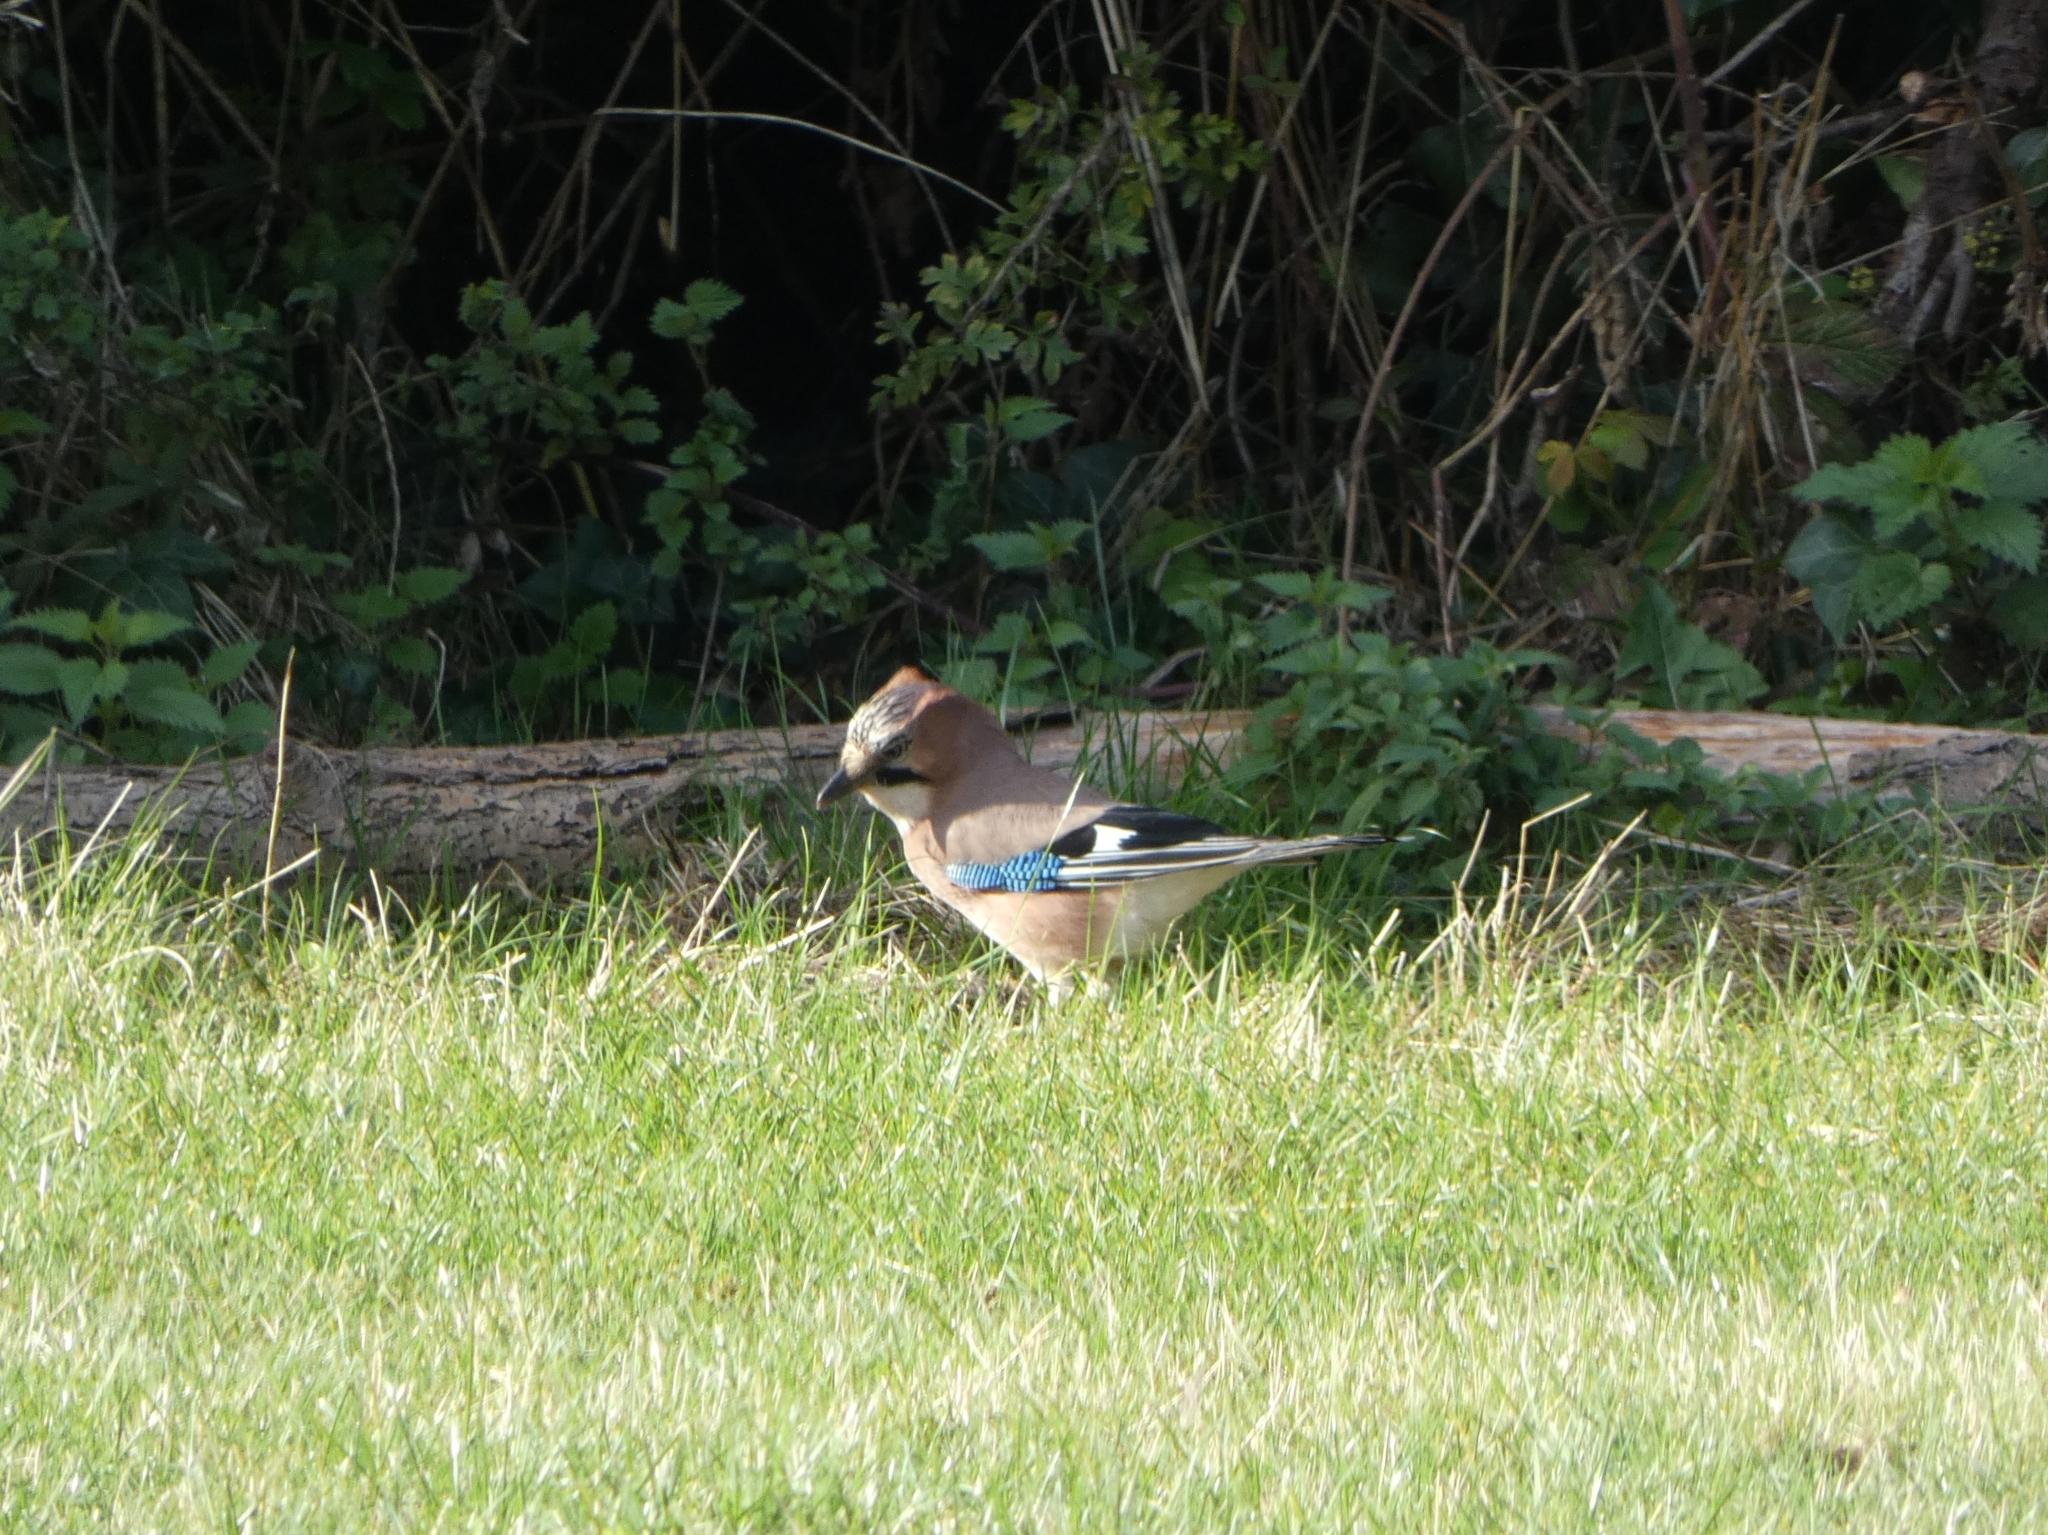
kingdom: Animalia
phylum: Chordata
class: Aves
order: Passeriformes
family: Corvidae
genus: Garrulus
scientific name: Garrulus glandarius
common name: Eurasian jay
